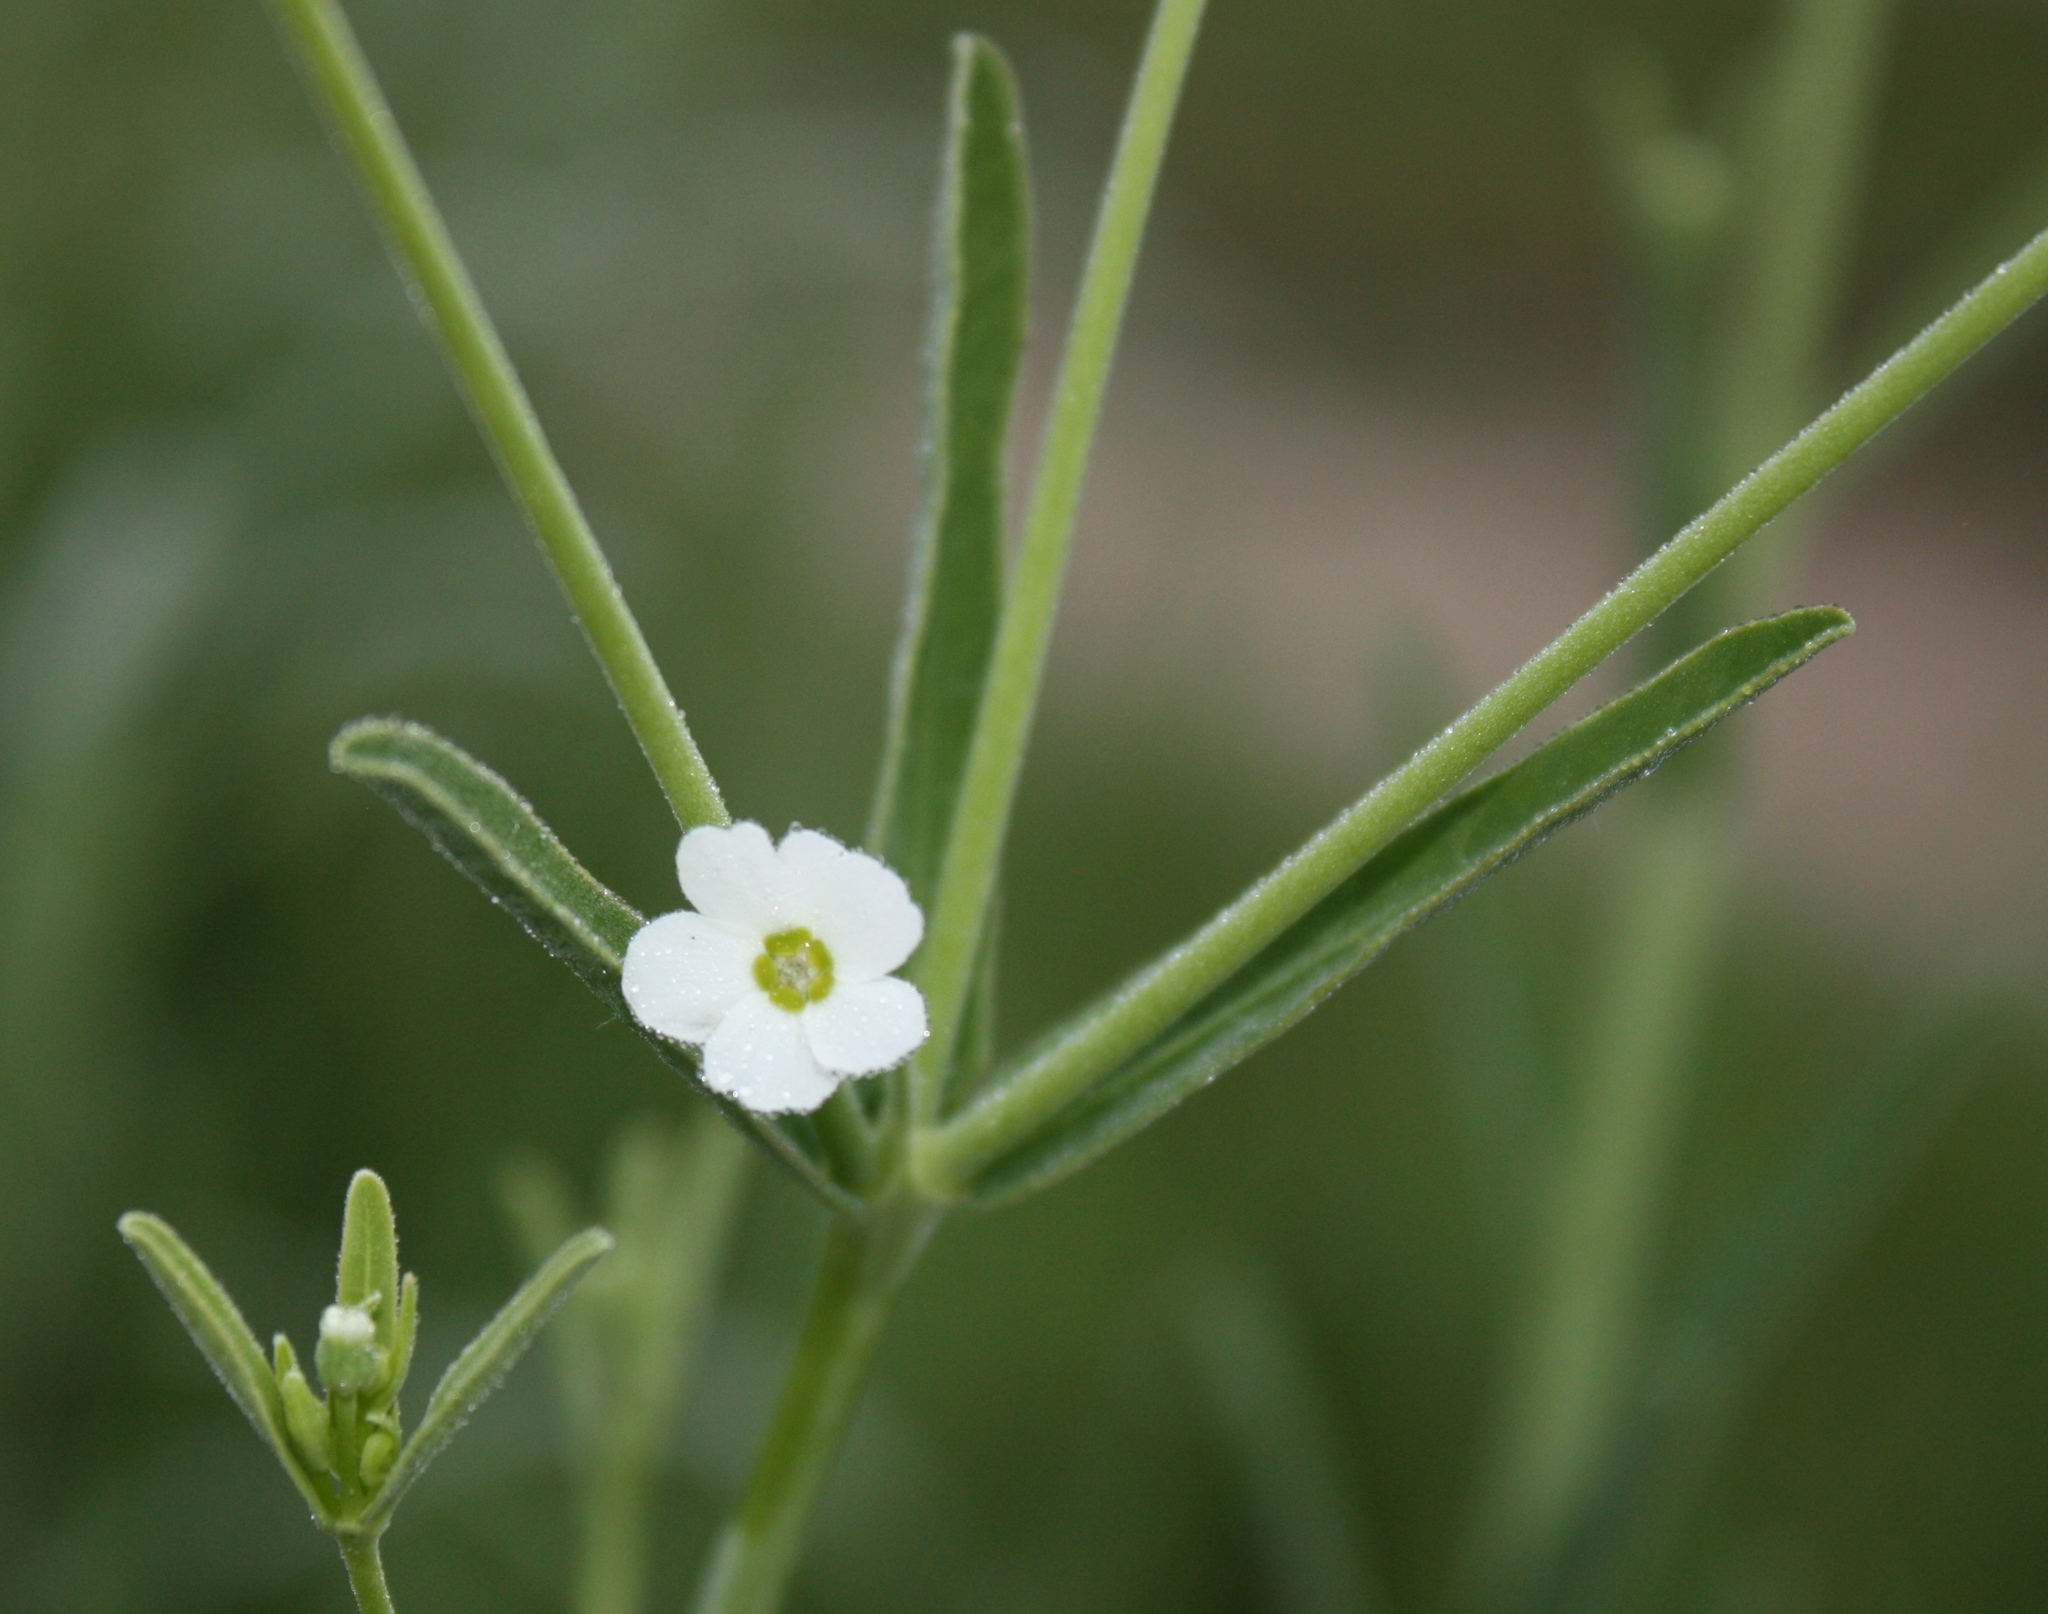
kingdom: Plantae
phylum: Tracheophyta
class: Magnoliopsida
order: Malpighiales
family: Euphorbiaceae
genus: Euphorbia
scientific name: Euphorbia corollata
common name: Flowering spurge
